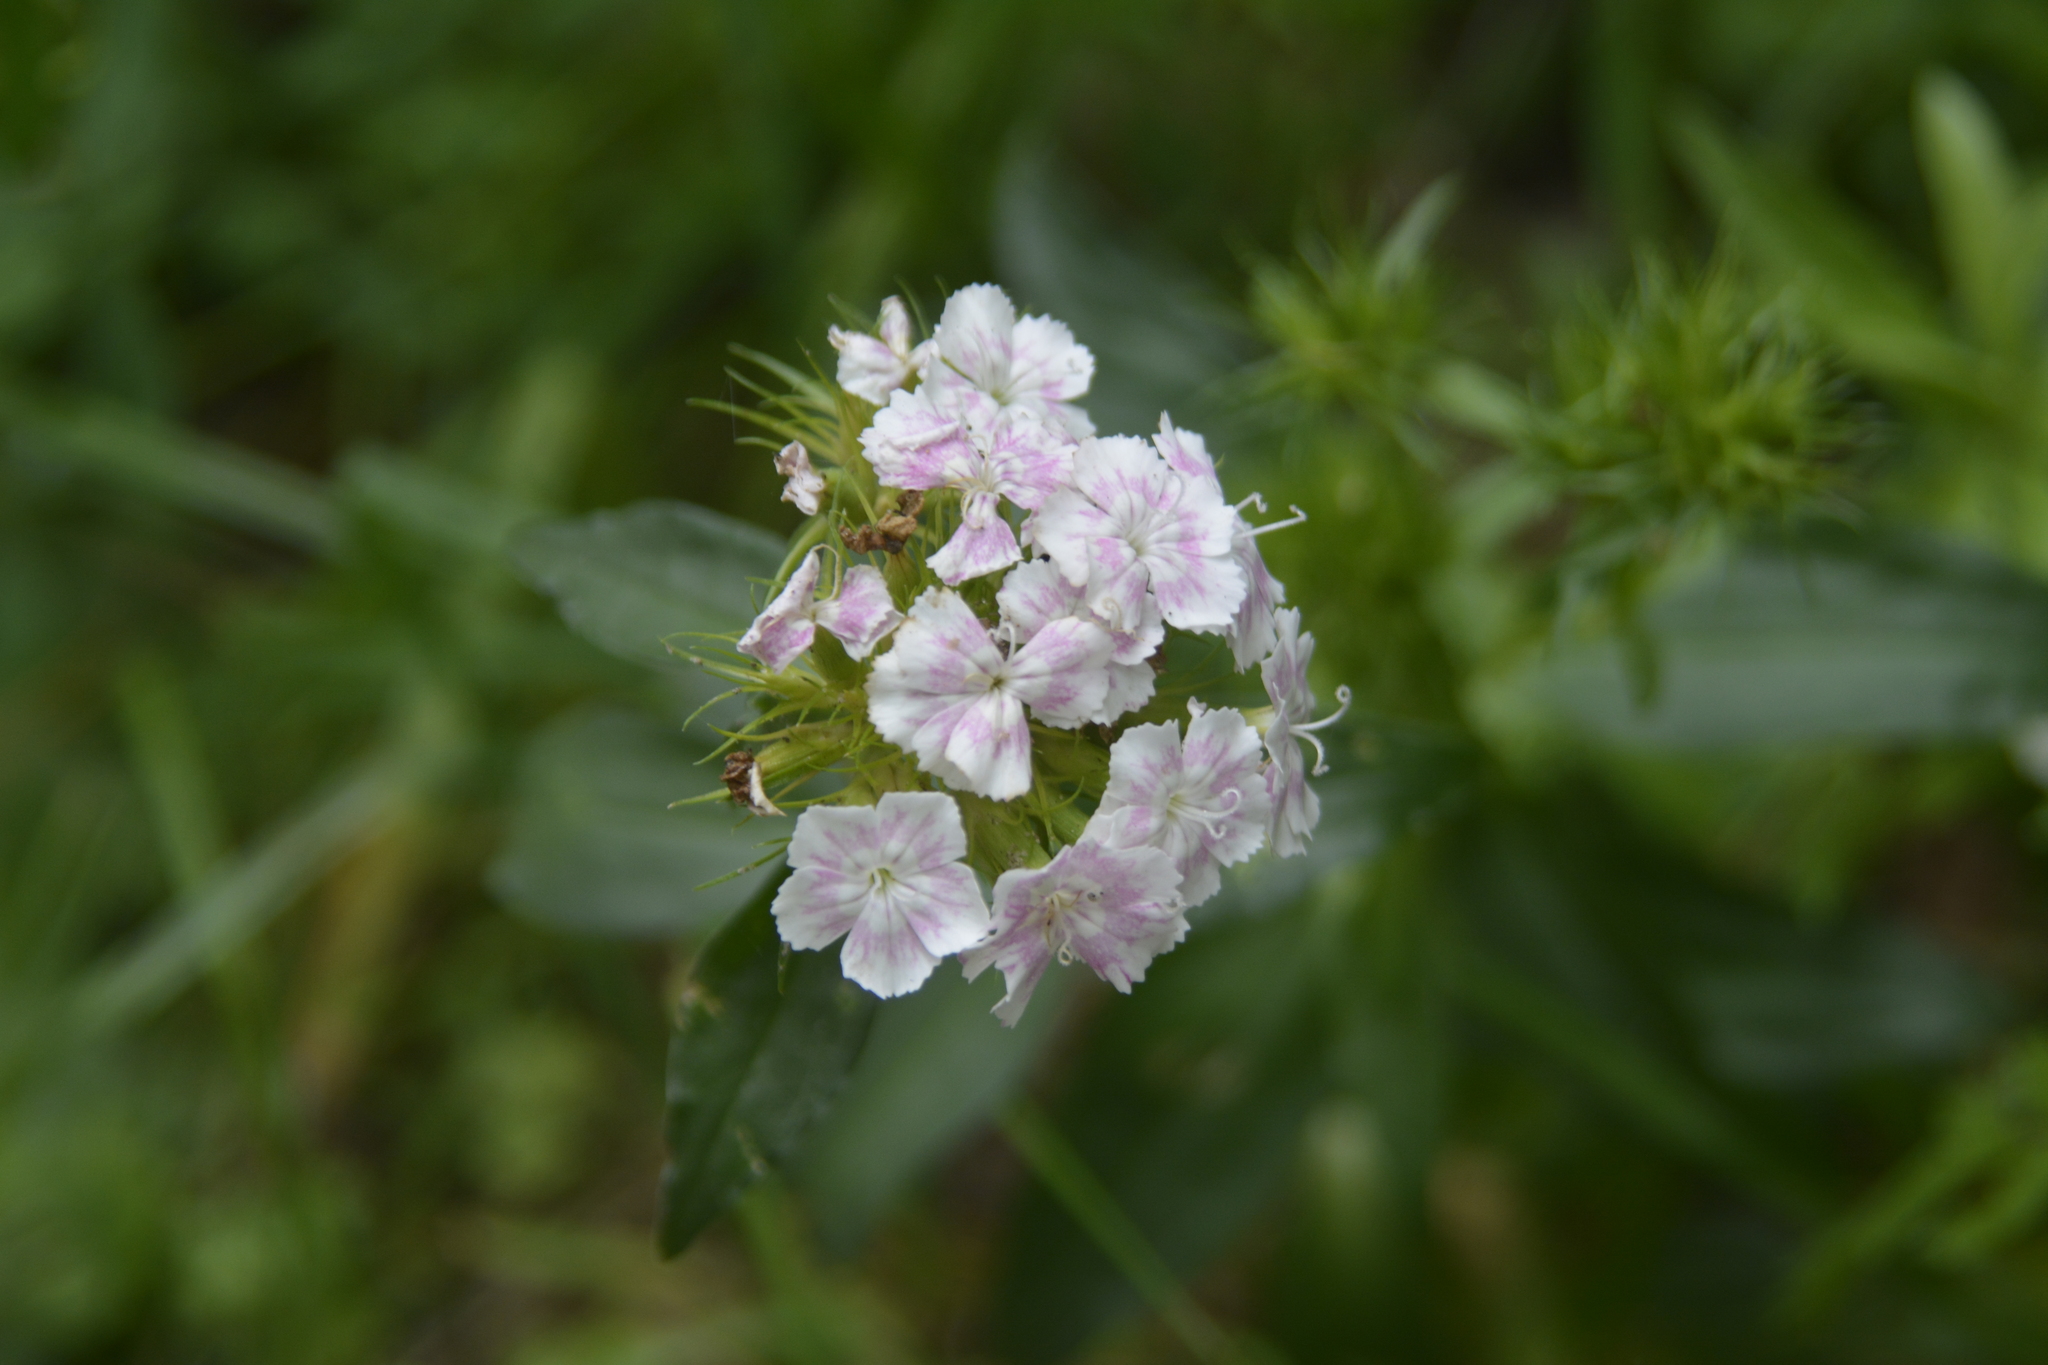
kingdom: Plantae
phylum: Tracheophyta
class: Magnoliopsida
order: Caryophyllales
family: Caryophyllaceae
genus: Dianthus
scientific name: Dianthus barbatus
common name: Sweet-william
